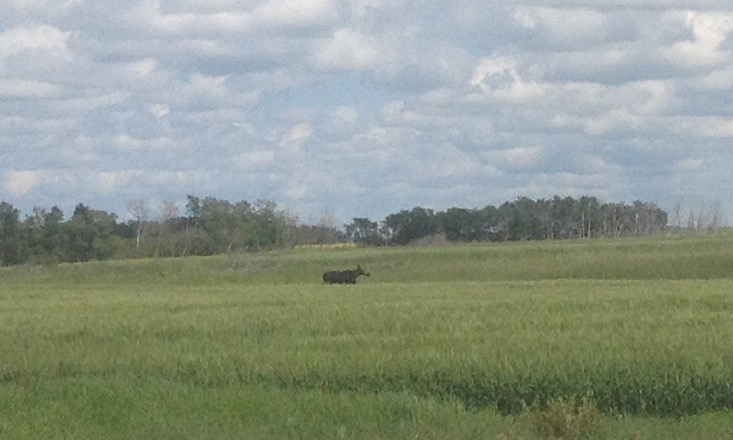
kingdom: Animalia
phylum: Chordata
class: Mammalia
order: Artiodactyla
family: Cervidae
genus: Alces
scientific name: Alces alces
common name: Moose
